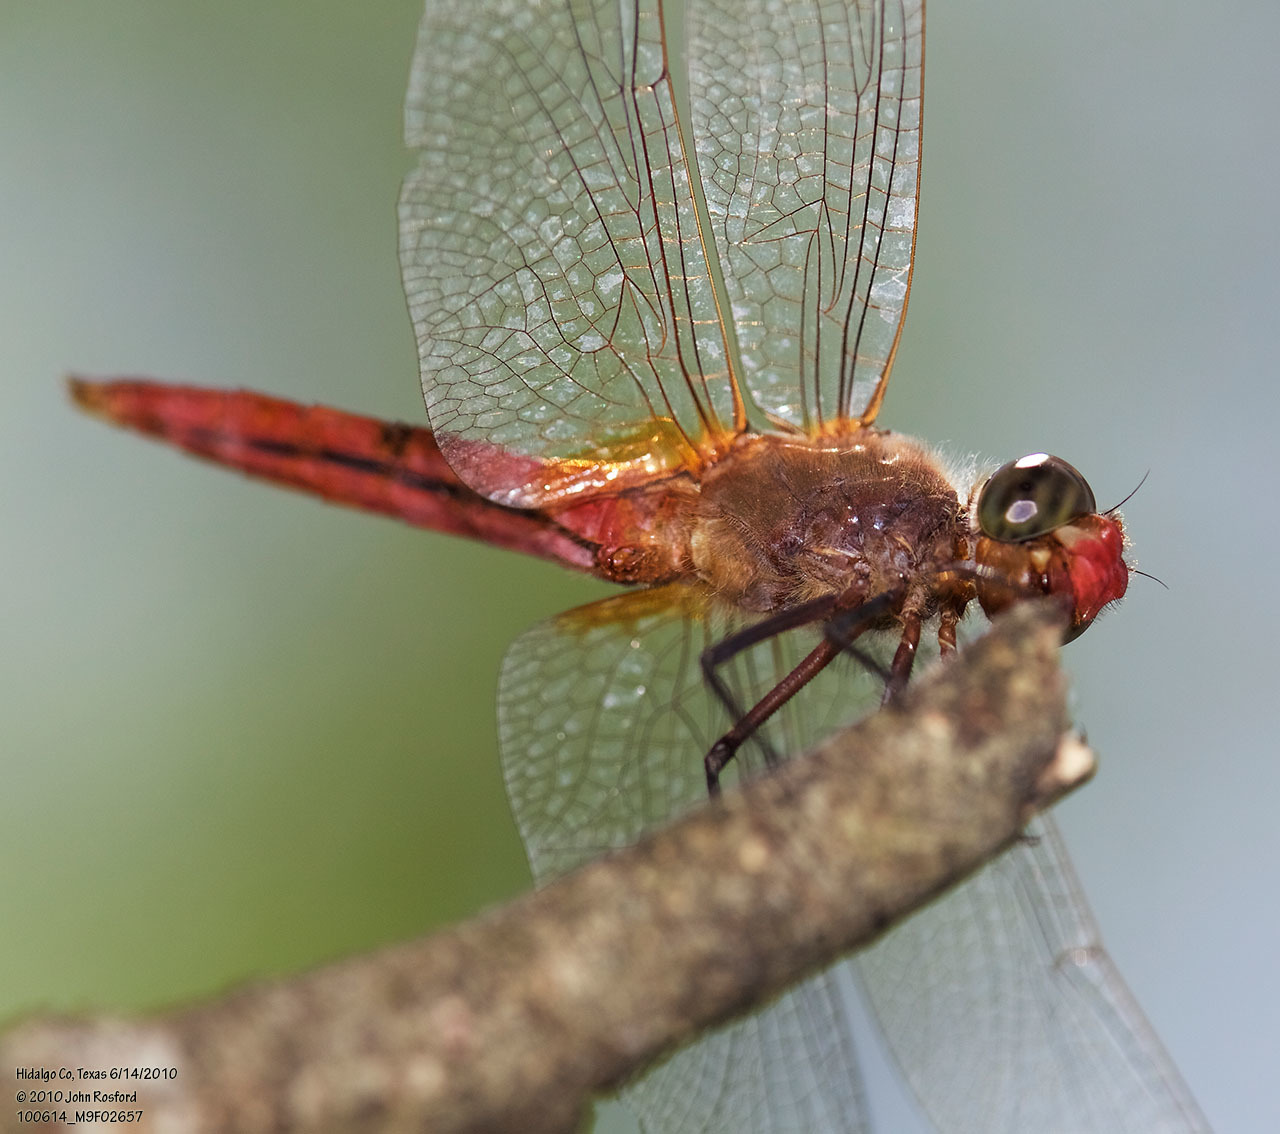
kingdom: Animalia
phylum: Arthropoda
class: Insecta
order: Odonata
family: Libellulidae
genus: Brachymesia
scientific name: Brachymesia furcata
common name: Red-taled pennant
